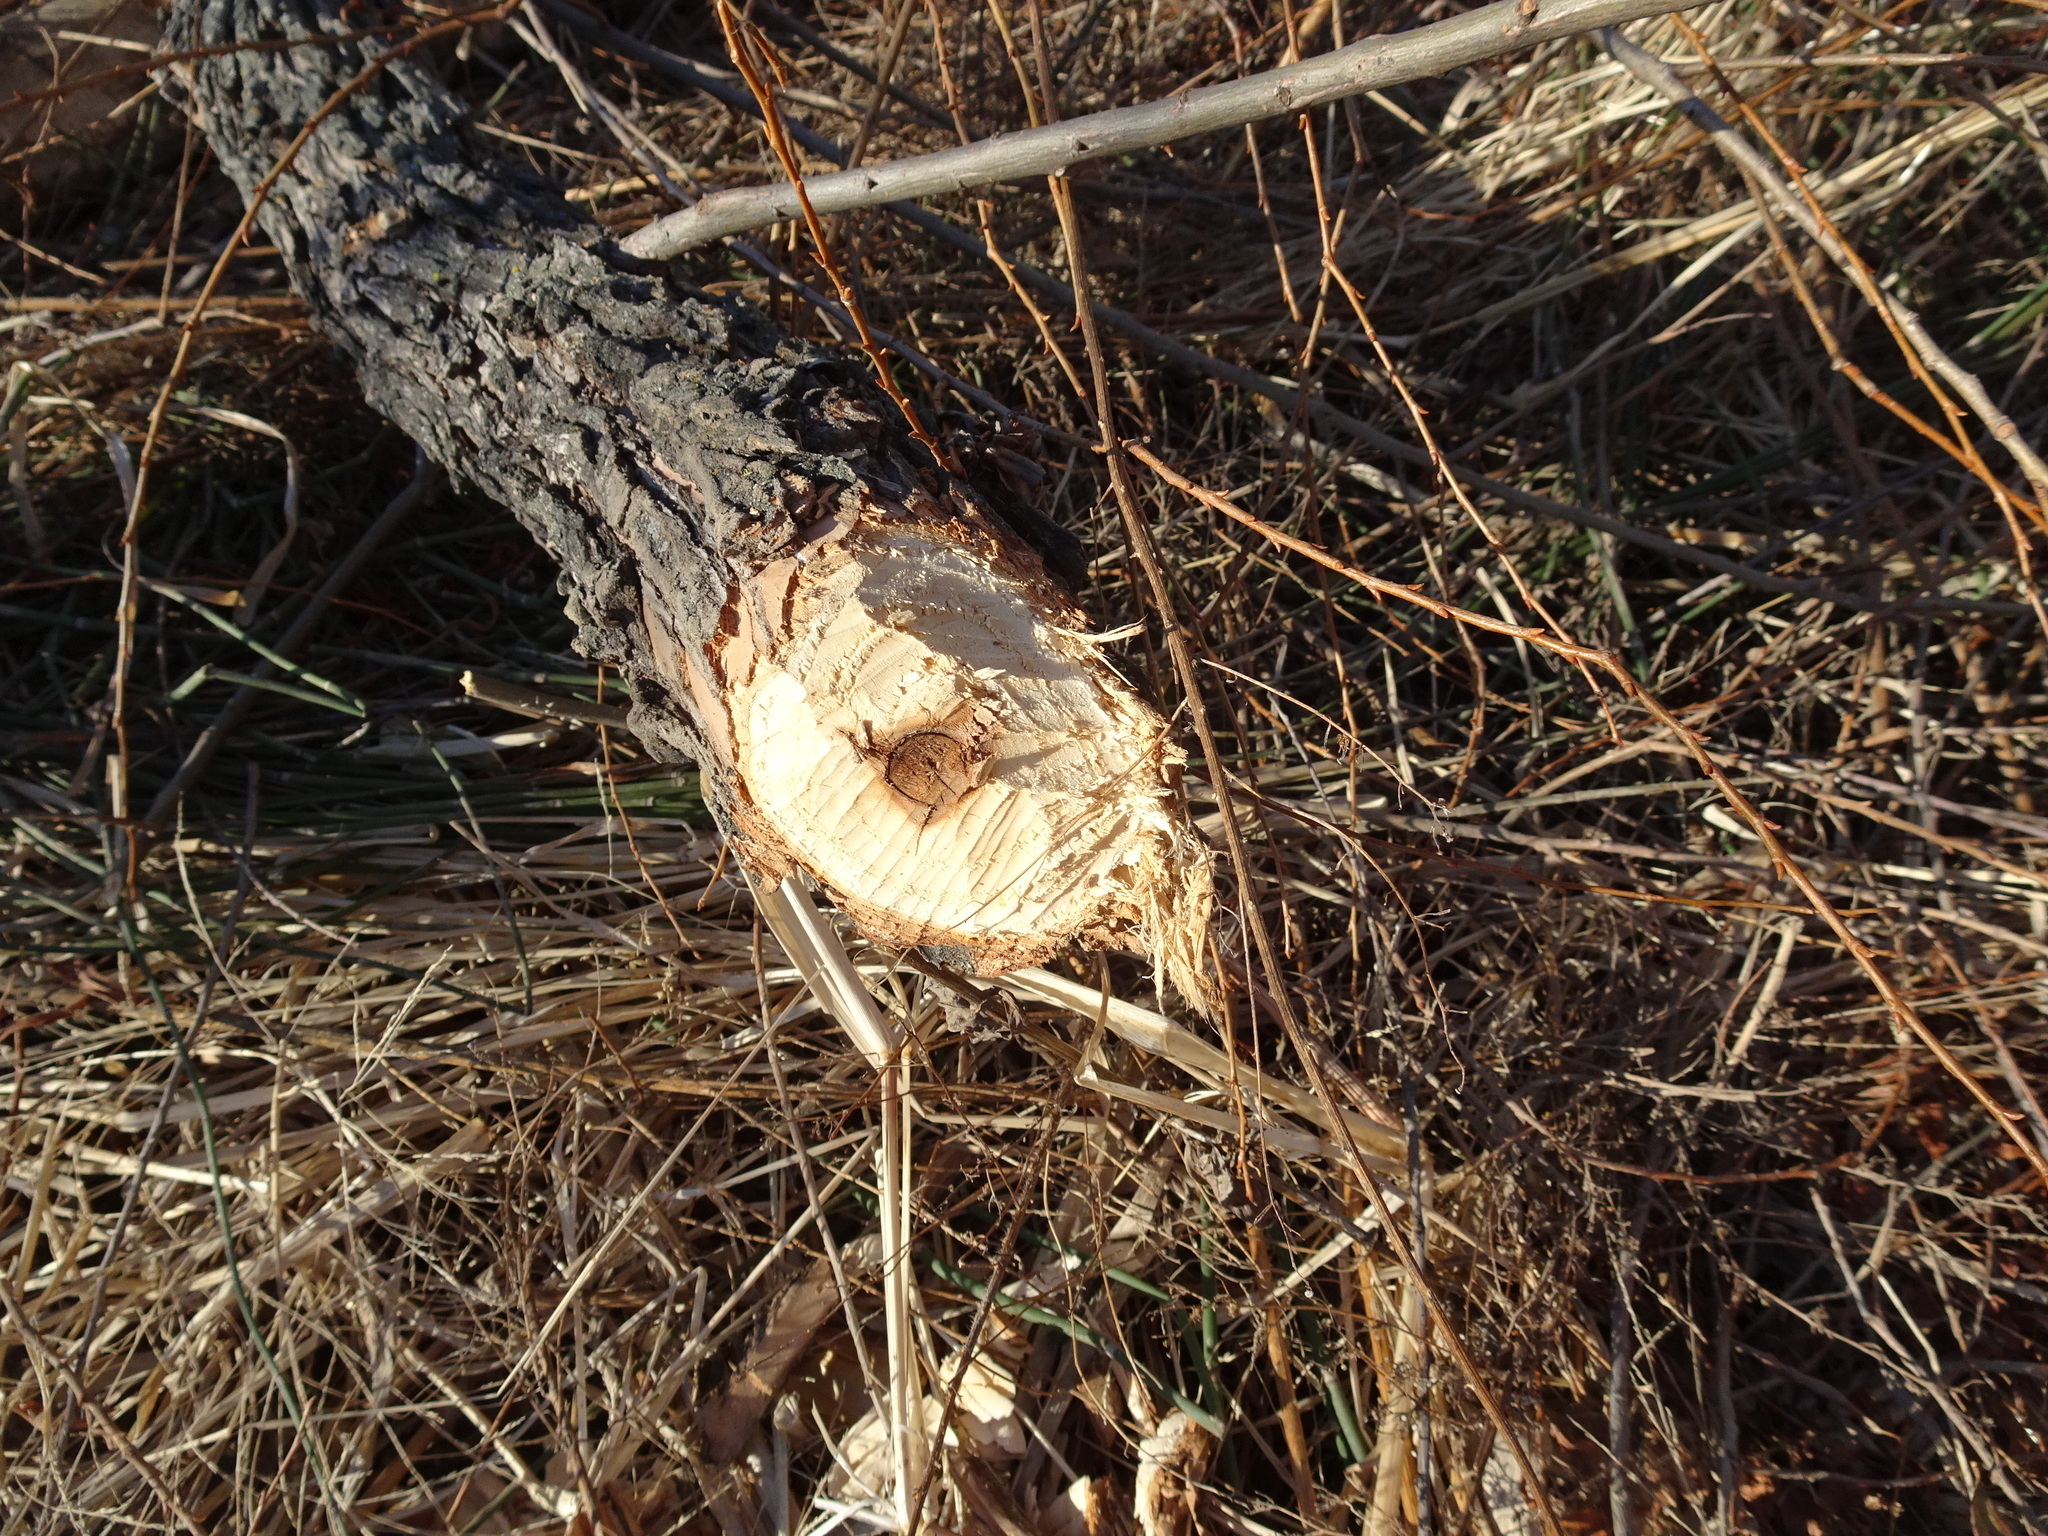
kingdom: Animalia
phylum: Chordata
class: Mammalia
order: Rodentia
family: Castoridae
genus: Castor
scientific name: Castor canadensis
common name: American beaver
